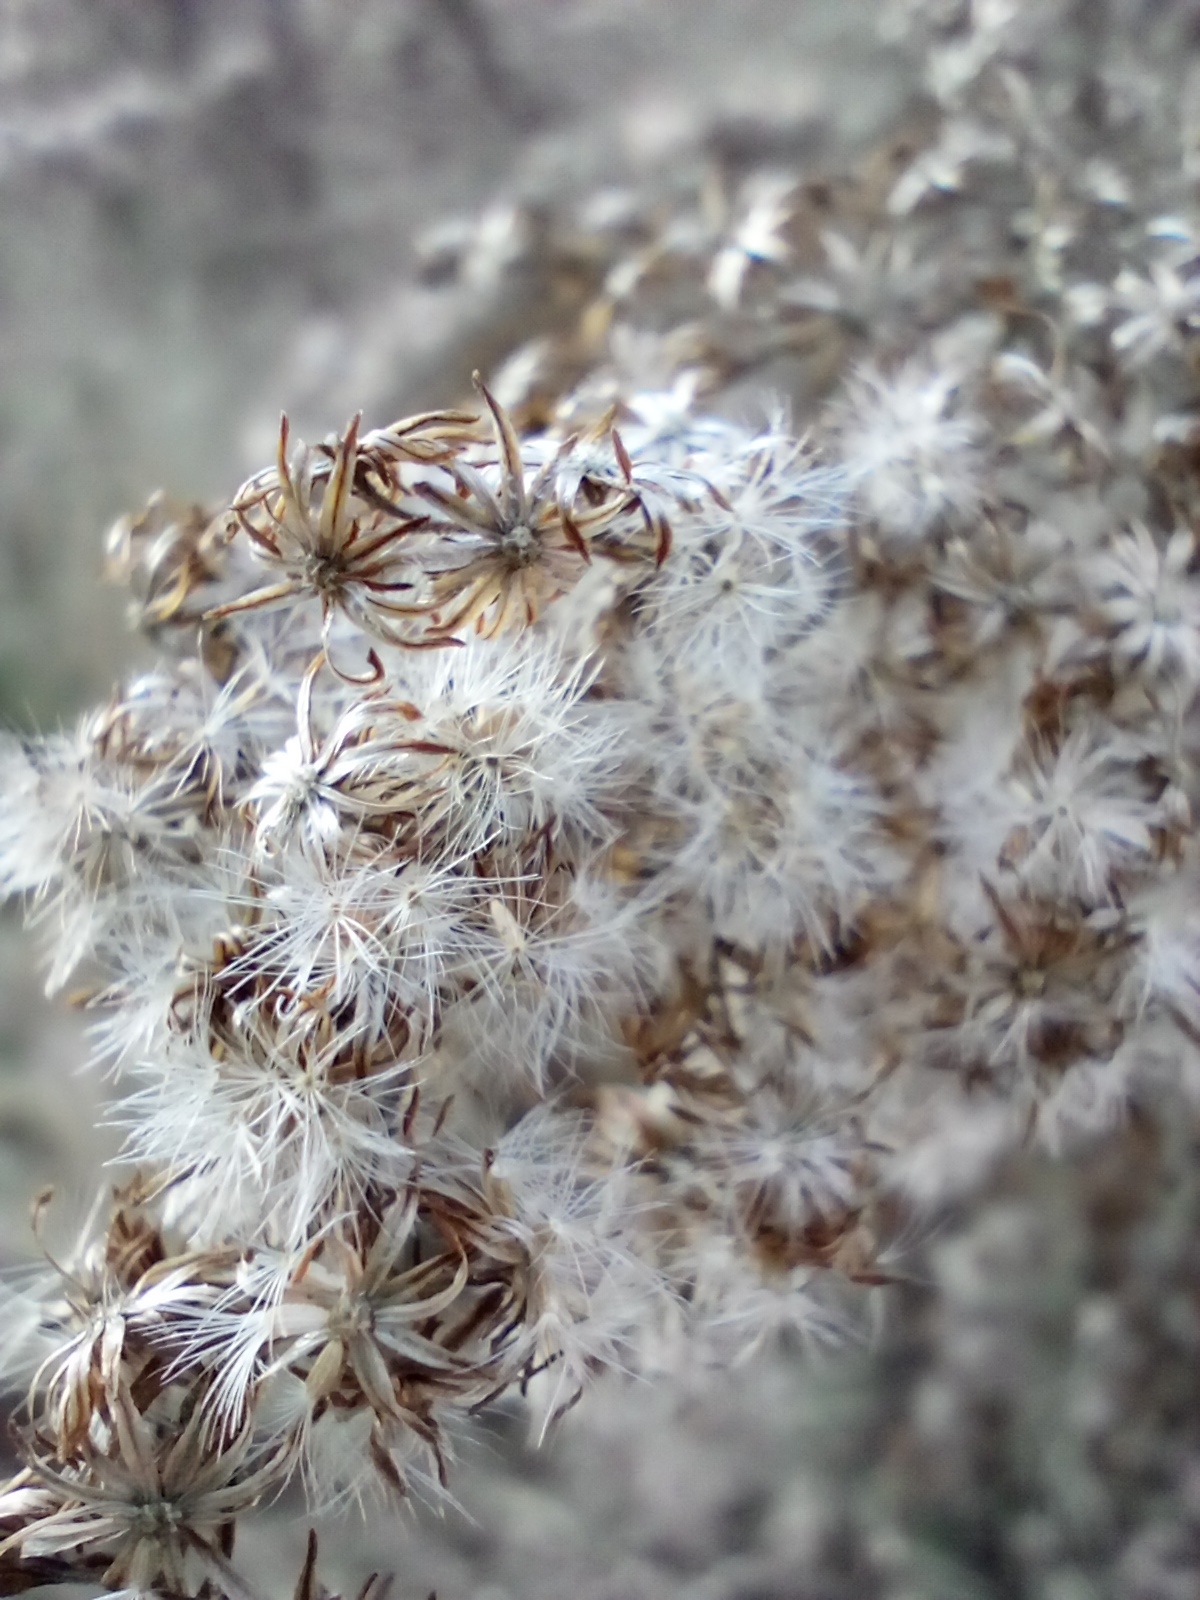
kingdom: Plantae
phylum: Tracheophyta
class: Magnoliopsida
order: Asterales
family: Asteraceae
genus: Solidago
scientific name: Solidago canadensis
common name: Canada goldenrod
